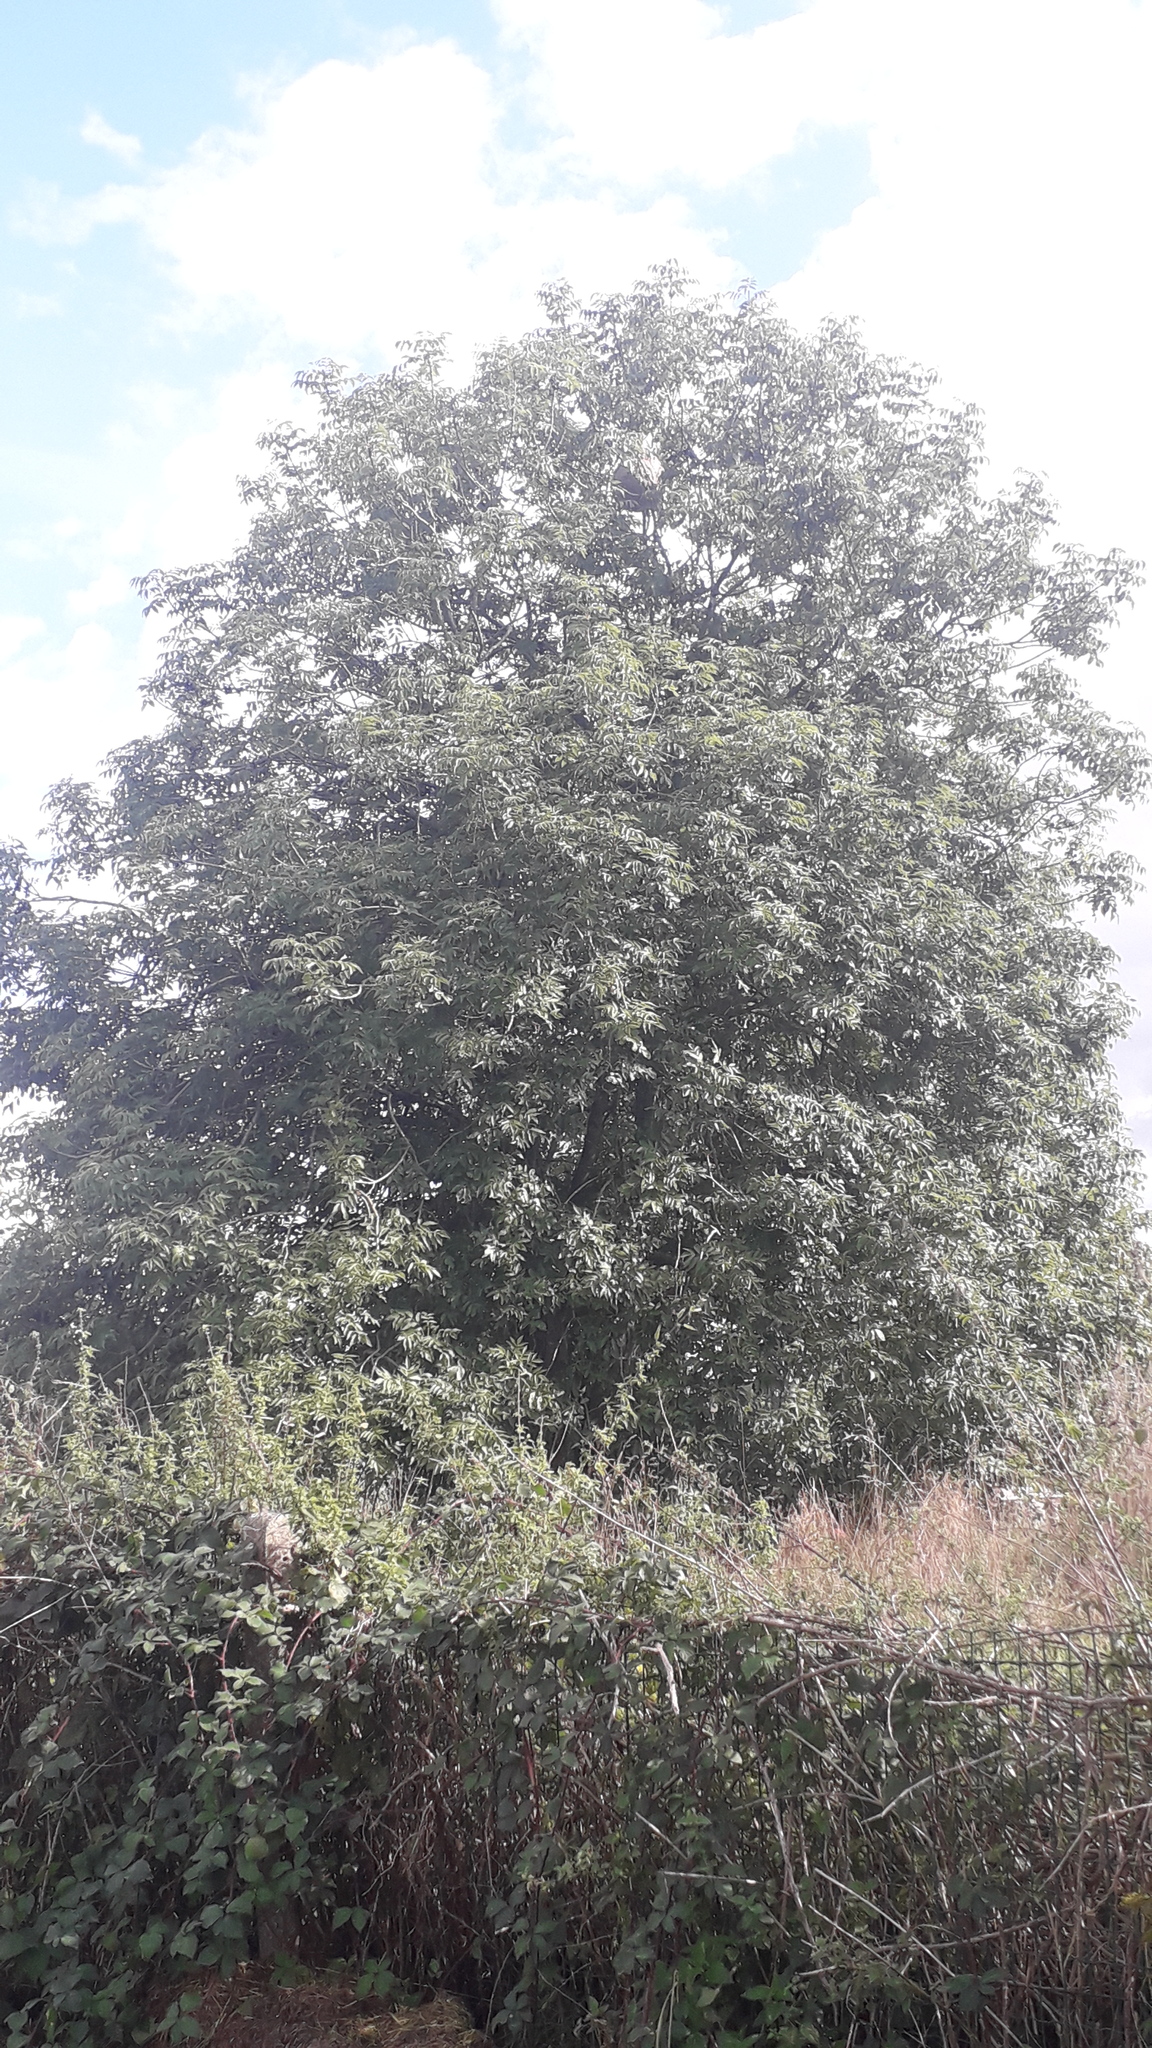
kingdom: Animalia
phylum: Arthropoda
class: Insecta
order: Hymenoptera
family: Vespidae
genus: Vespa
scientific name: Vespa velutina
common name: Asian hornet
